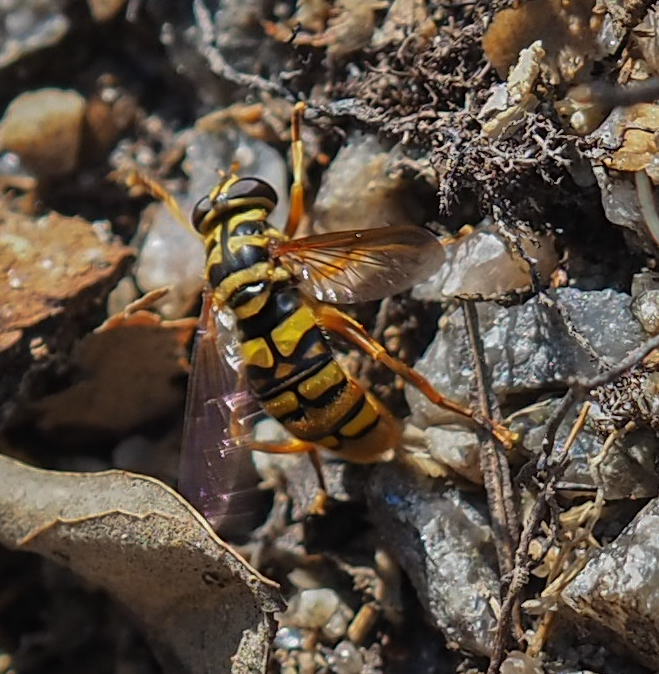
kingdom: Animalia
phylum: Arthropoda
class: Insecta
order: Diptera
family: Syrphidae
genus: Milesia
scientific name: Milesia virginiensis
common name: Virginia giant
